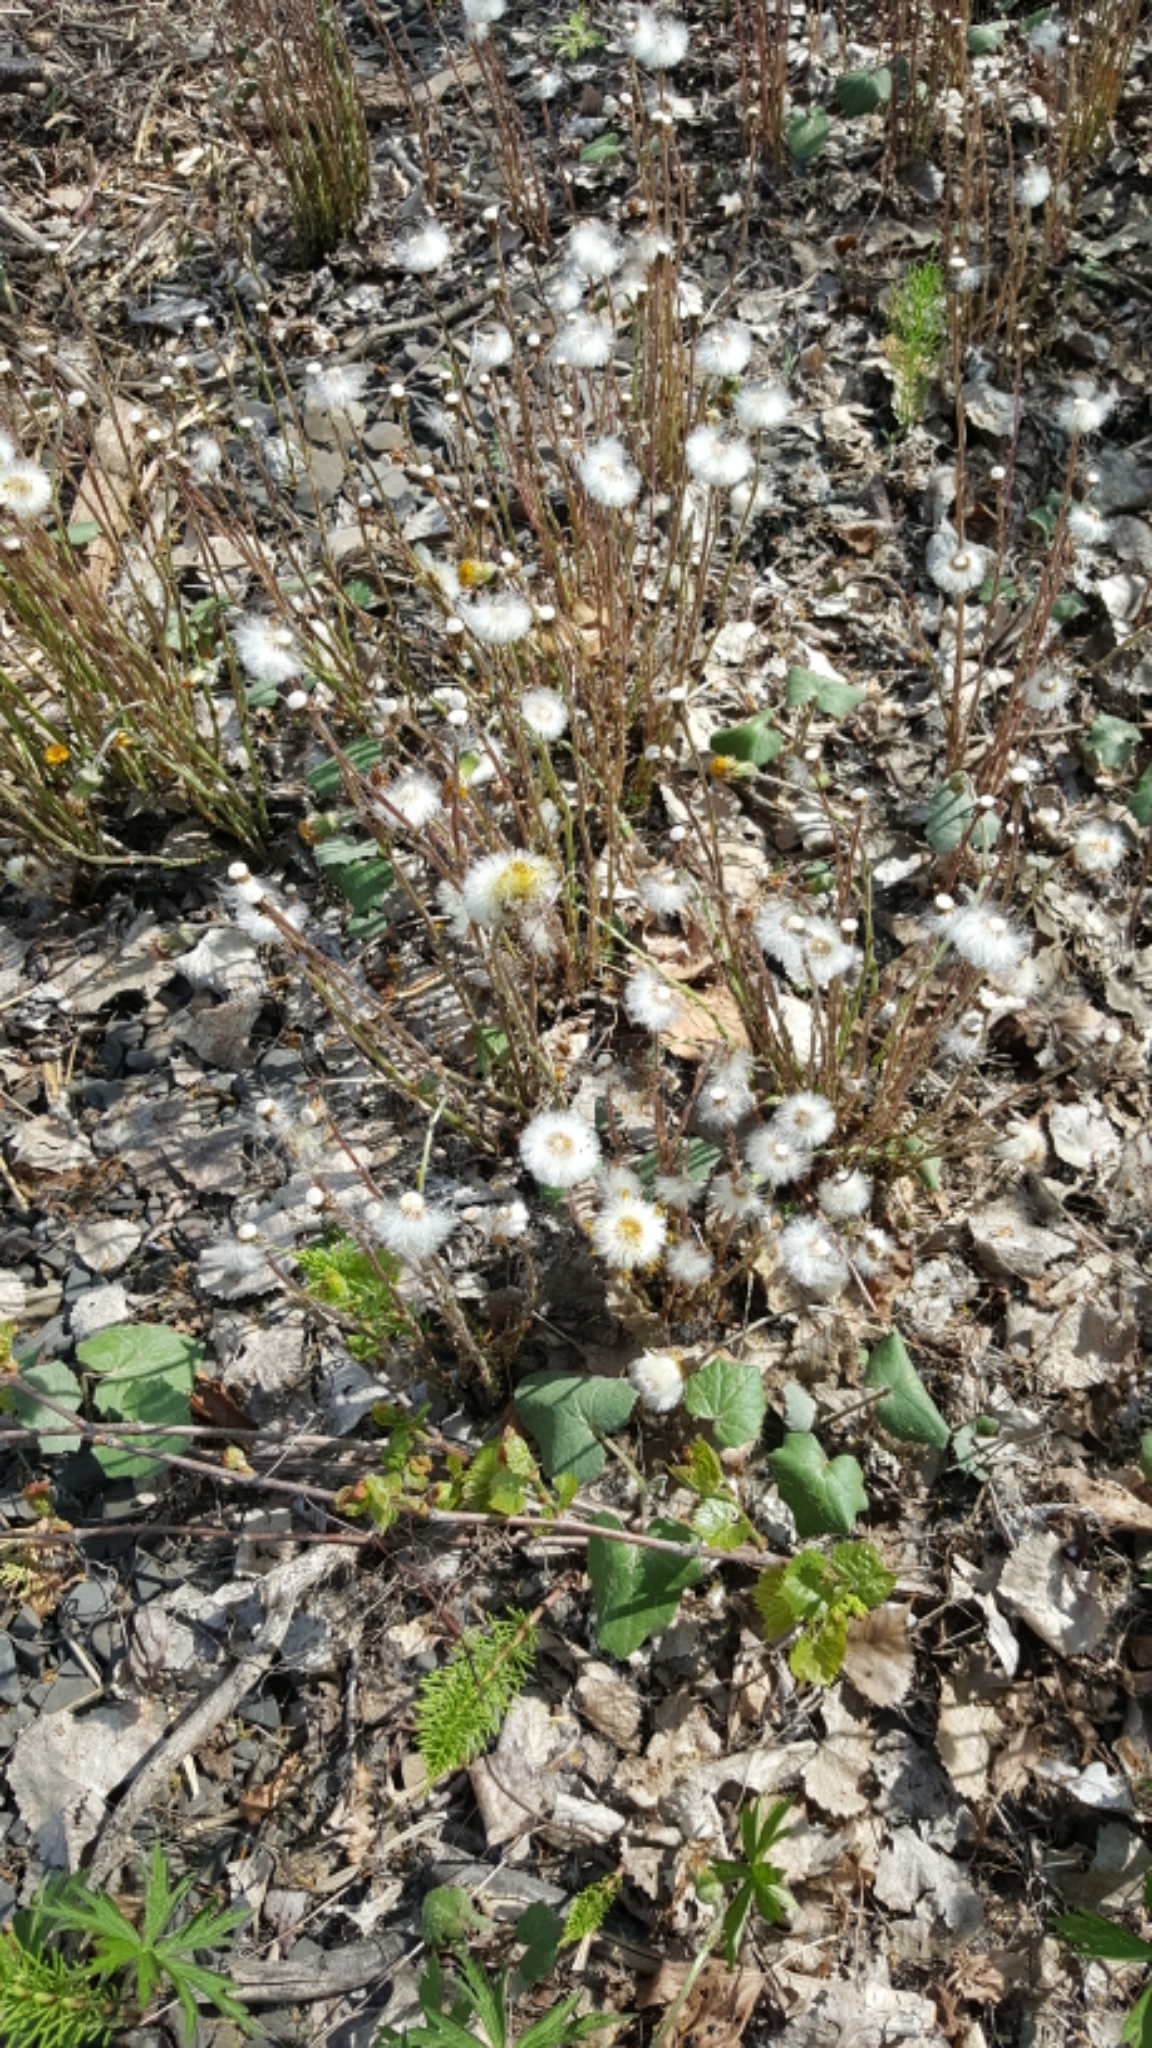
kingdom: Plantae
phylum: Tracheophyta
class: Magnoliopsida
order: Asterales
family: Asteraceae
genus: Tussilago
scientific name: Tussilago farfara
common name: Coltsfoot
